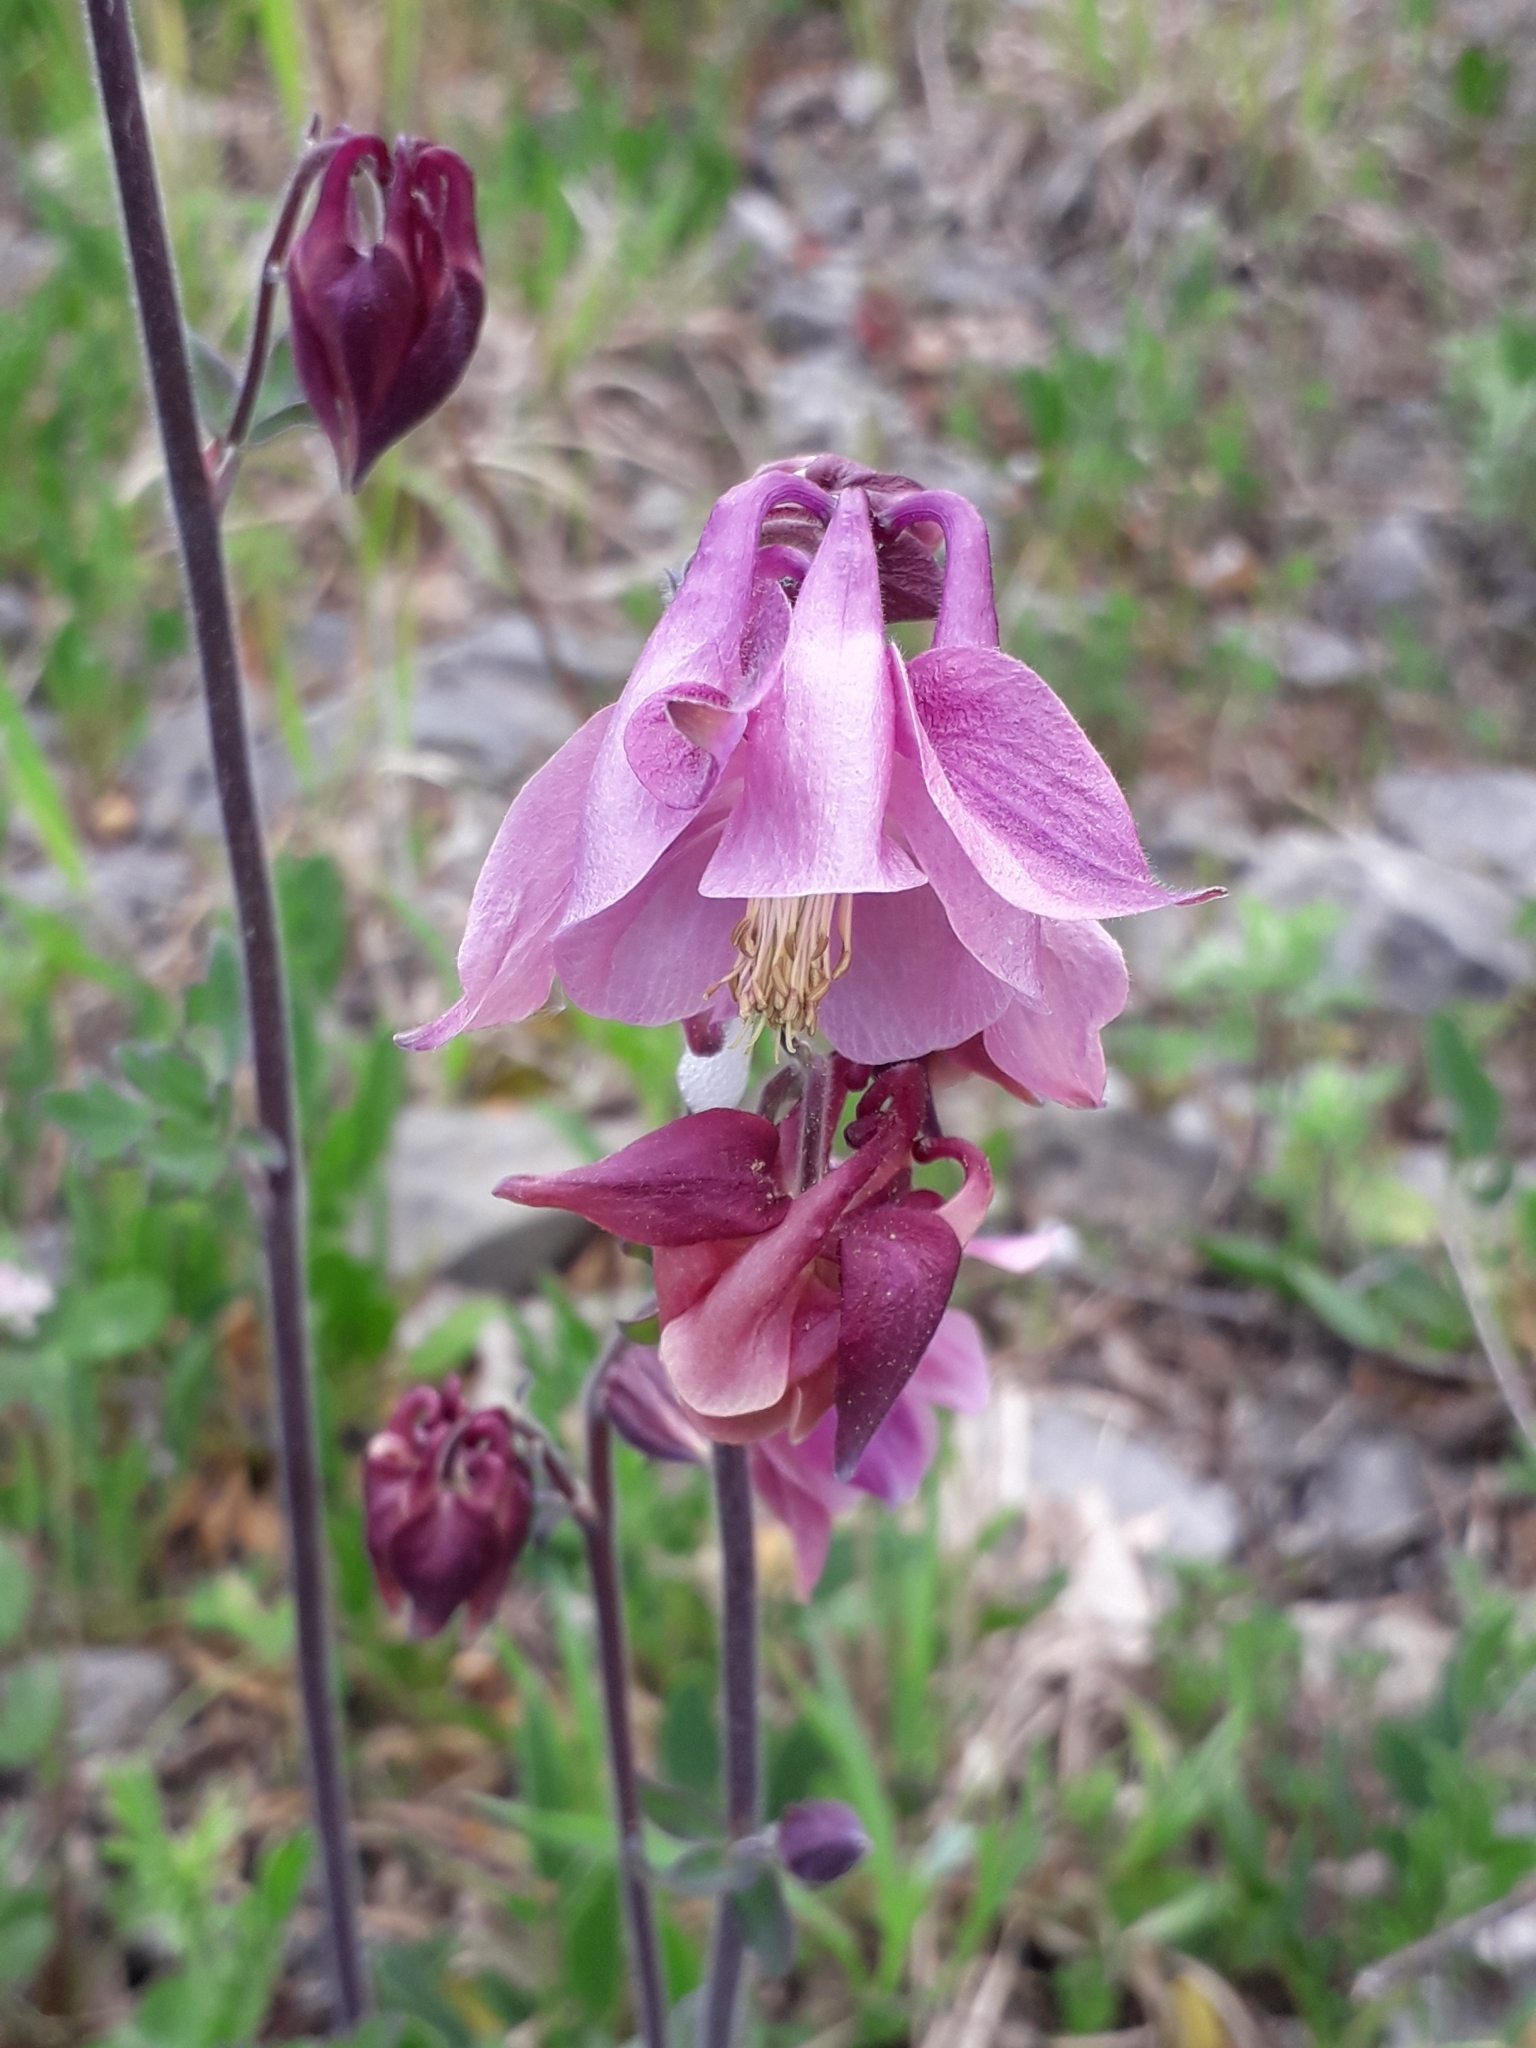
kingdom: Plantae
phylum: Tracheophyta
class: Magnoliopsida
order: Ranunculales
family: Ranunculaceae
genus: Aquilegia
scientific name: Aquilegia vulgaris
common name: Columbine
